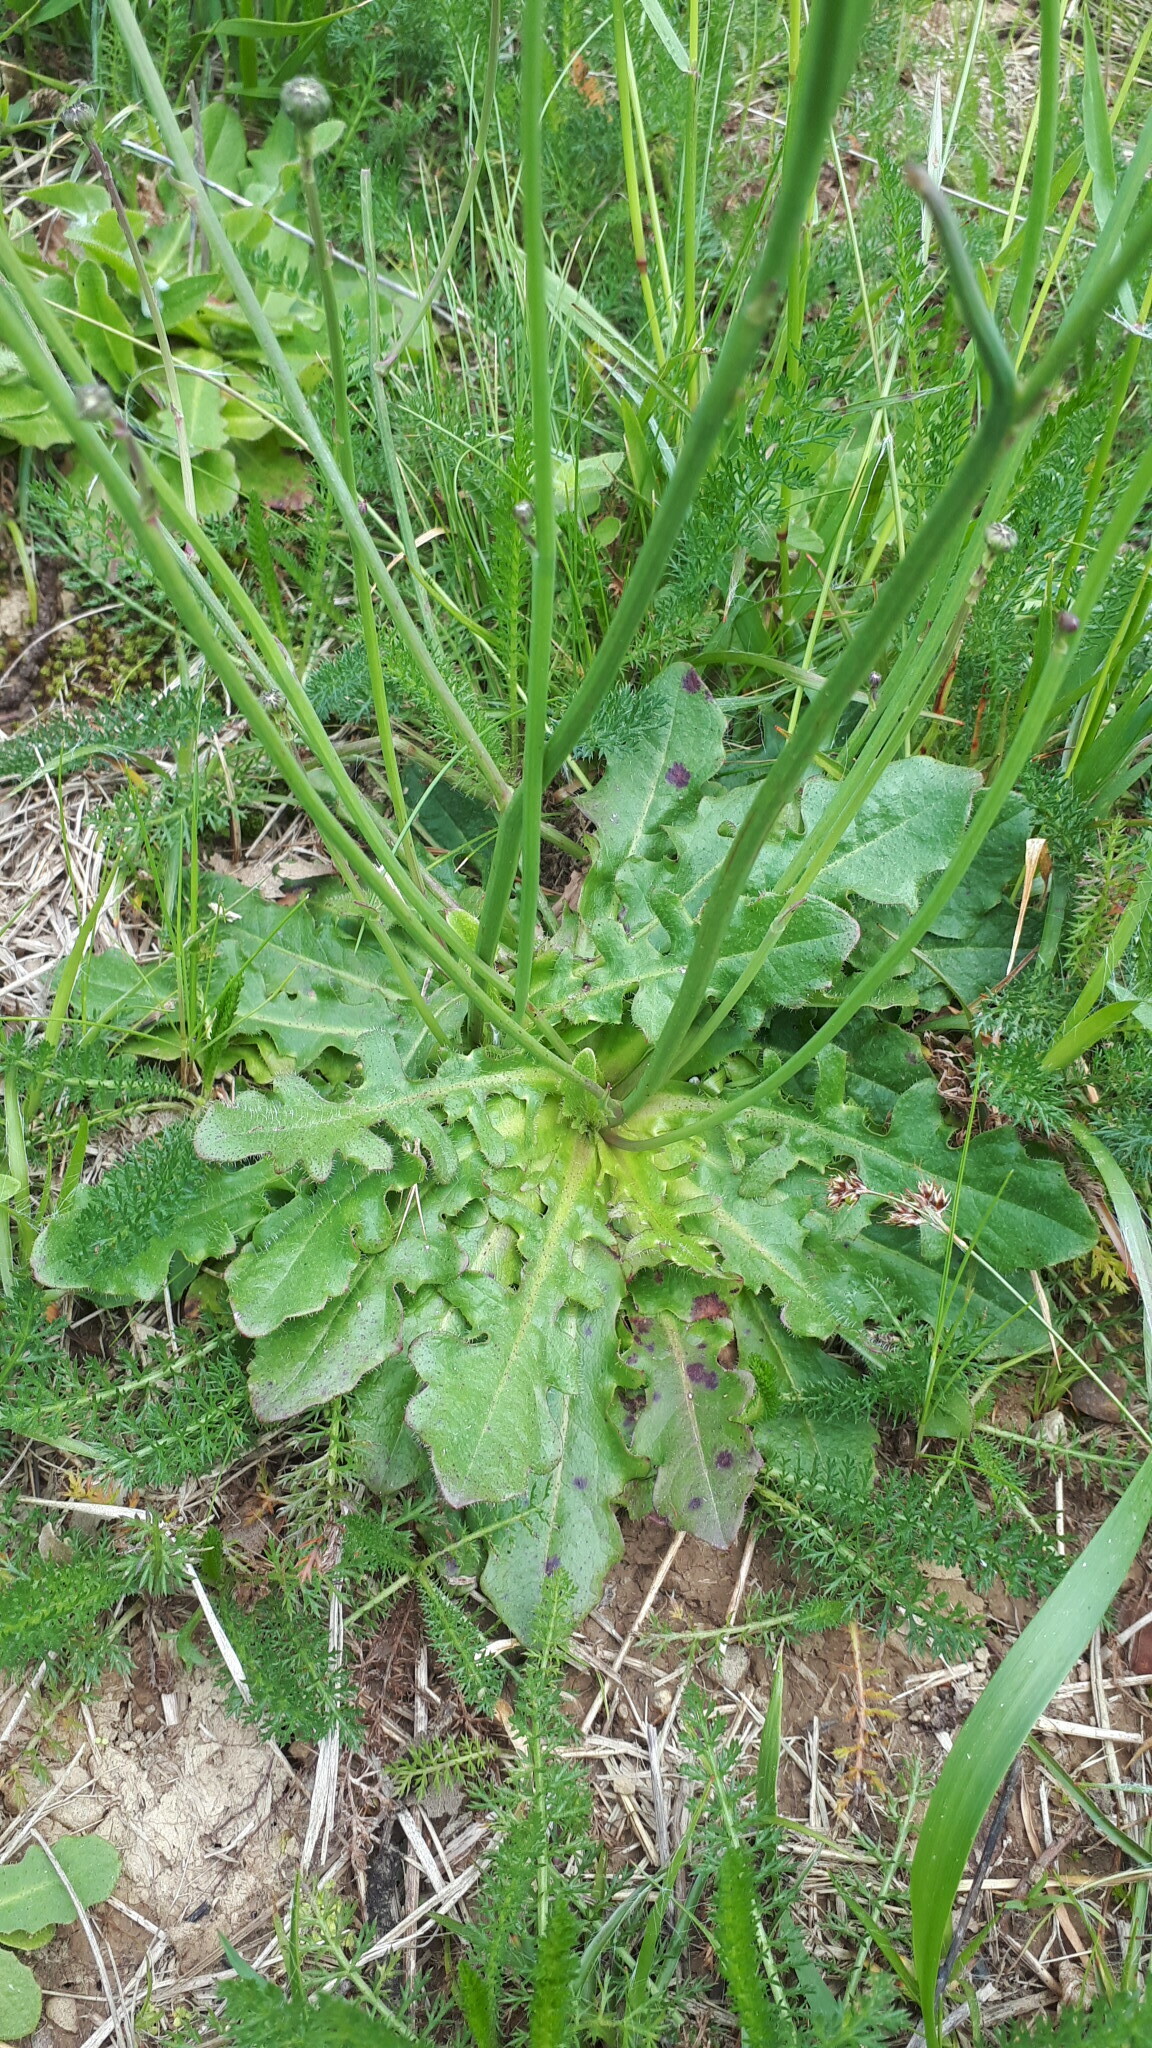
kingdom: Plantae
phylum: Tracheophyta
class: Magnoliopsida
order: Asterales
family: Asteraceae
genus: Hypochaeris
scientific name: Hypochaeris radicata
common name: Flatweed
